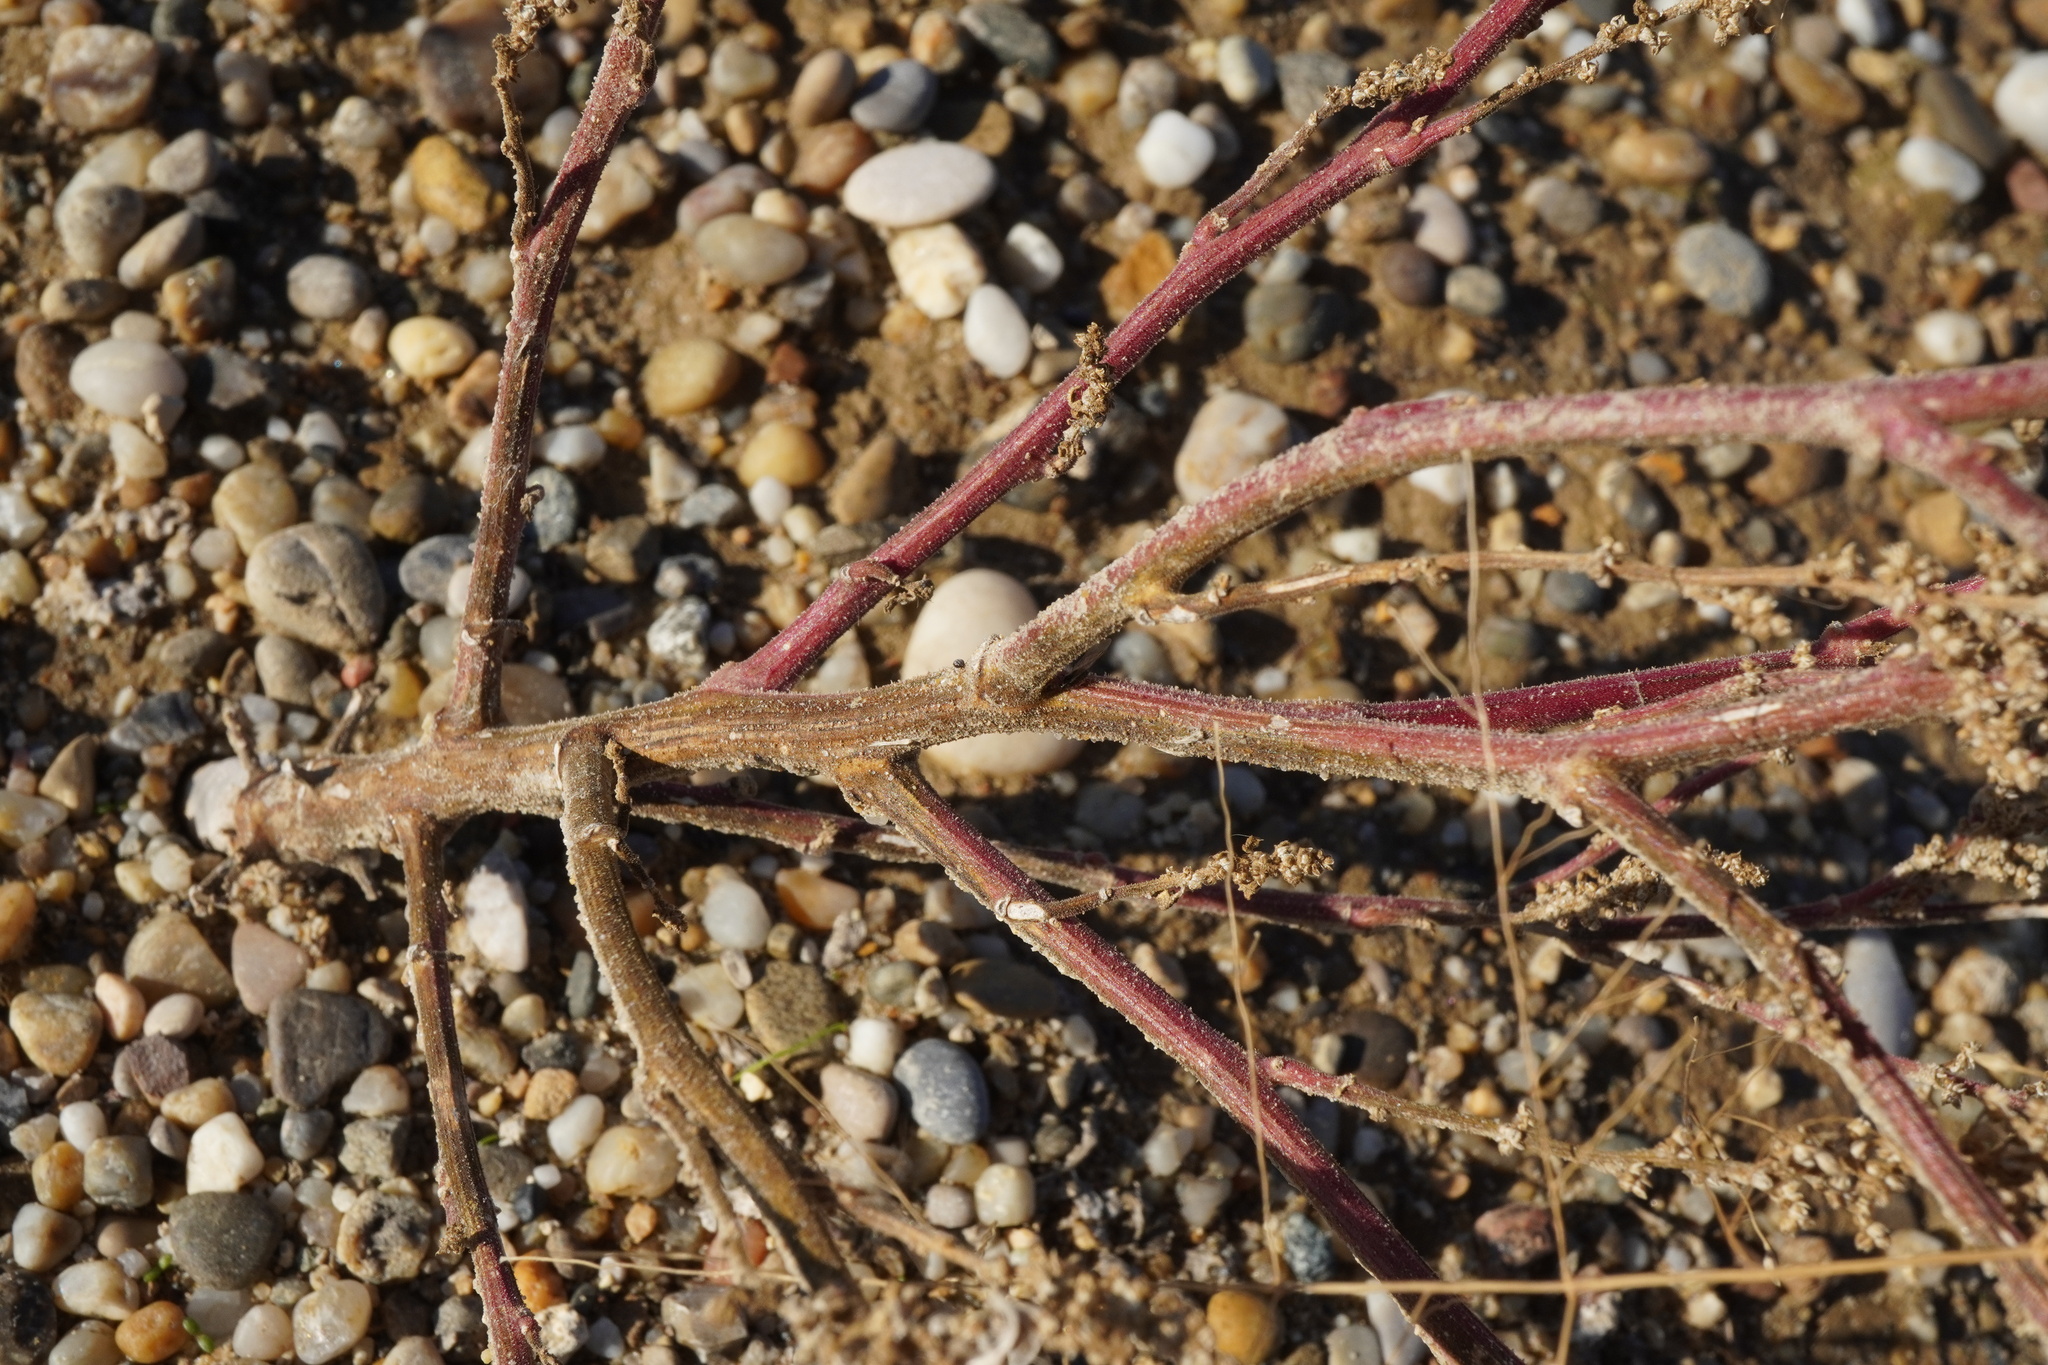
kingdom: Plantae
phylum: Tracheophyta
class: Magnoliopsida
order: Caryophyllales
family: Amaranthaceae
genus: Dysphania
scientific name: Dysphania botrys
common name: Feather-geranium
